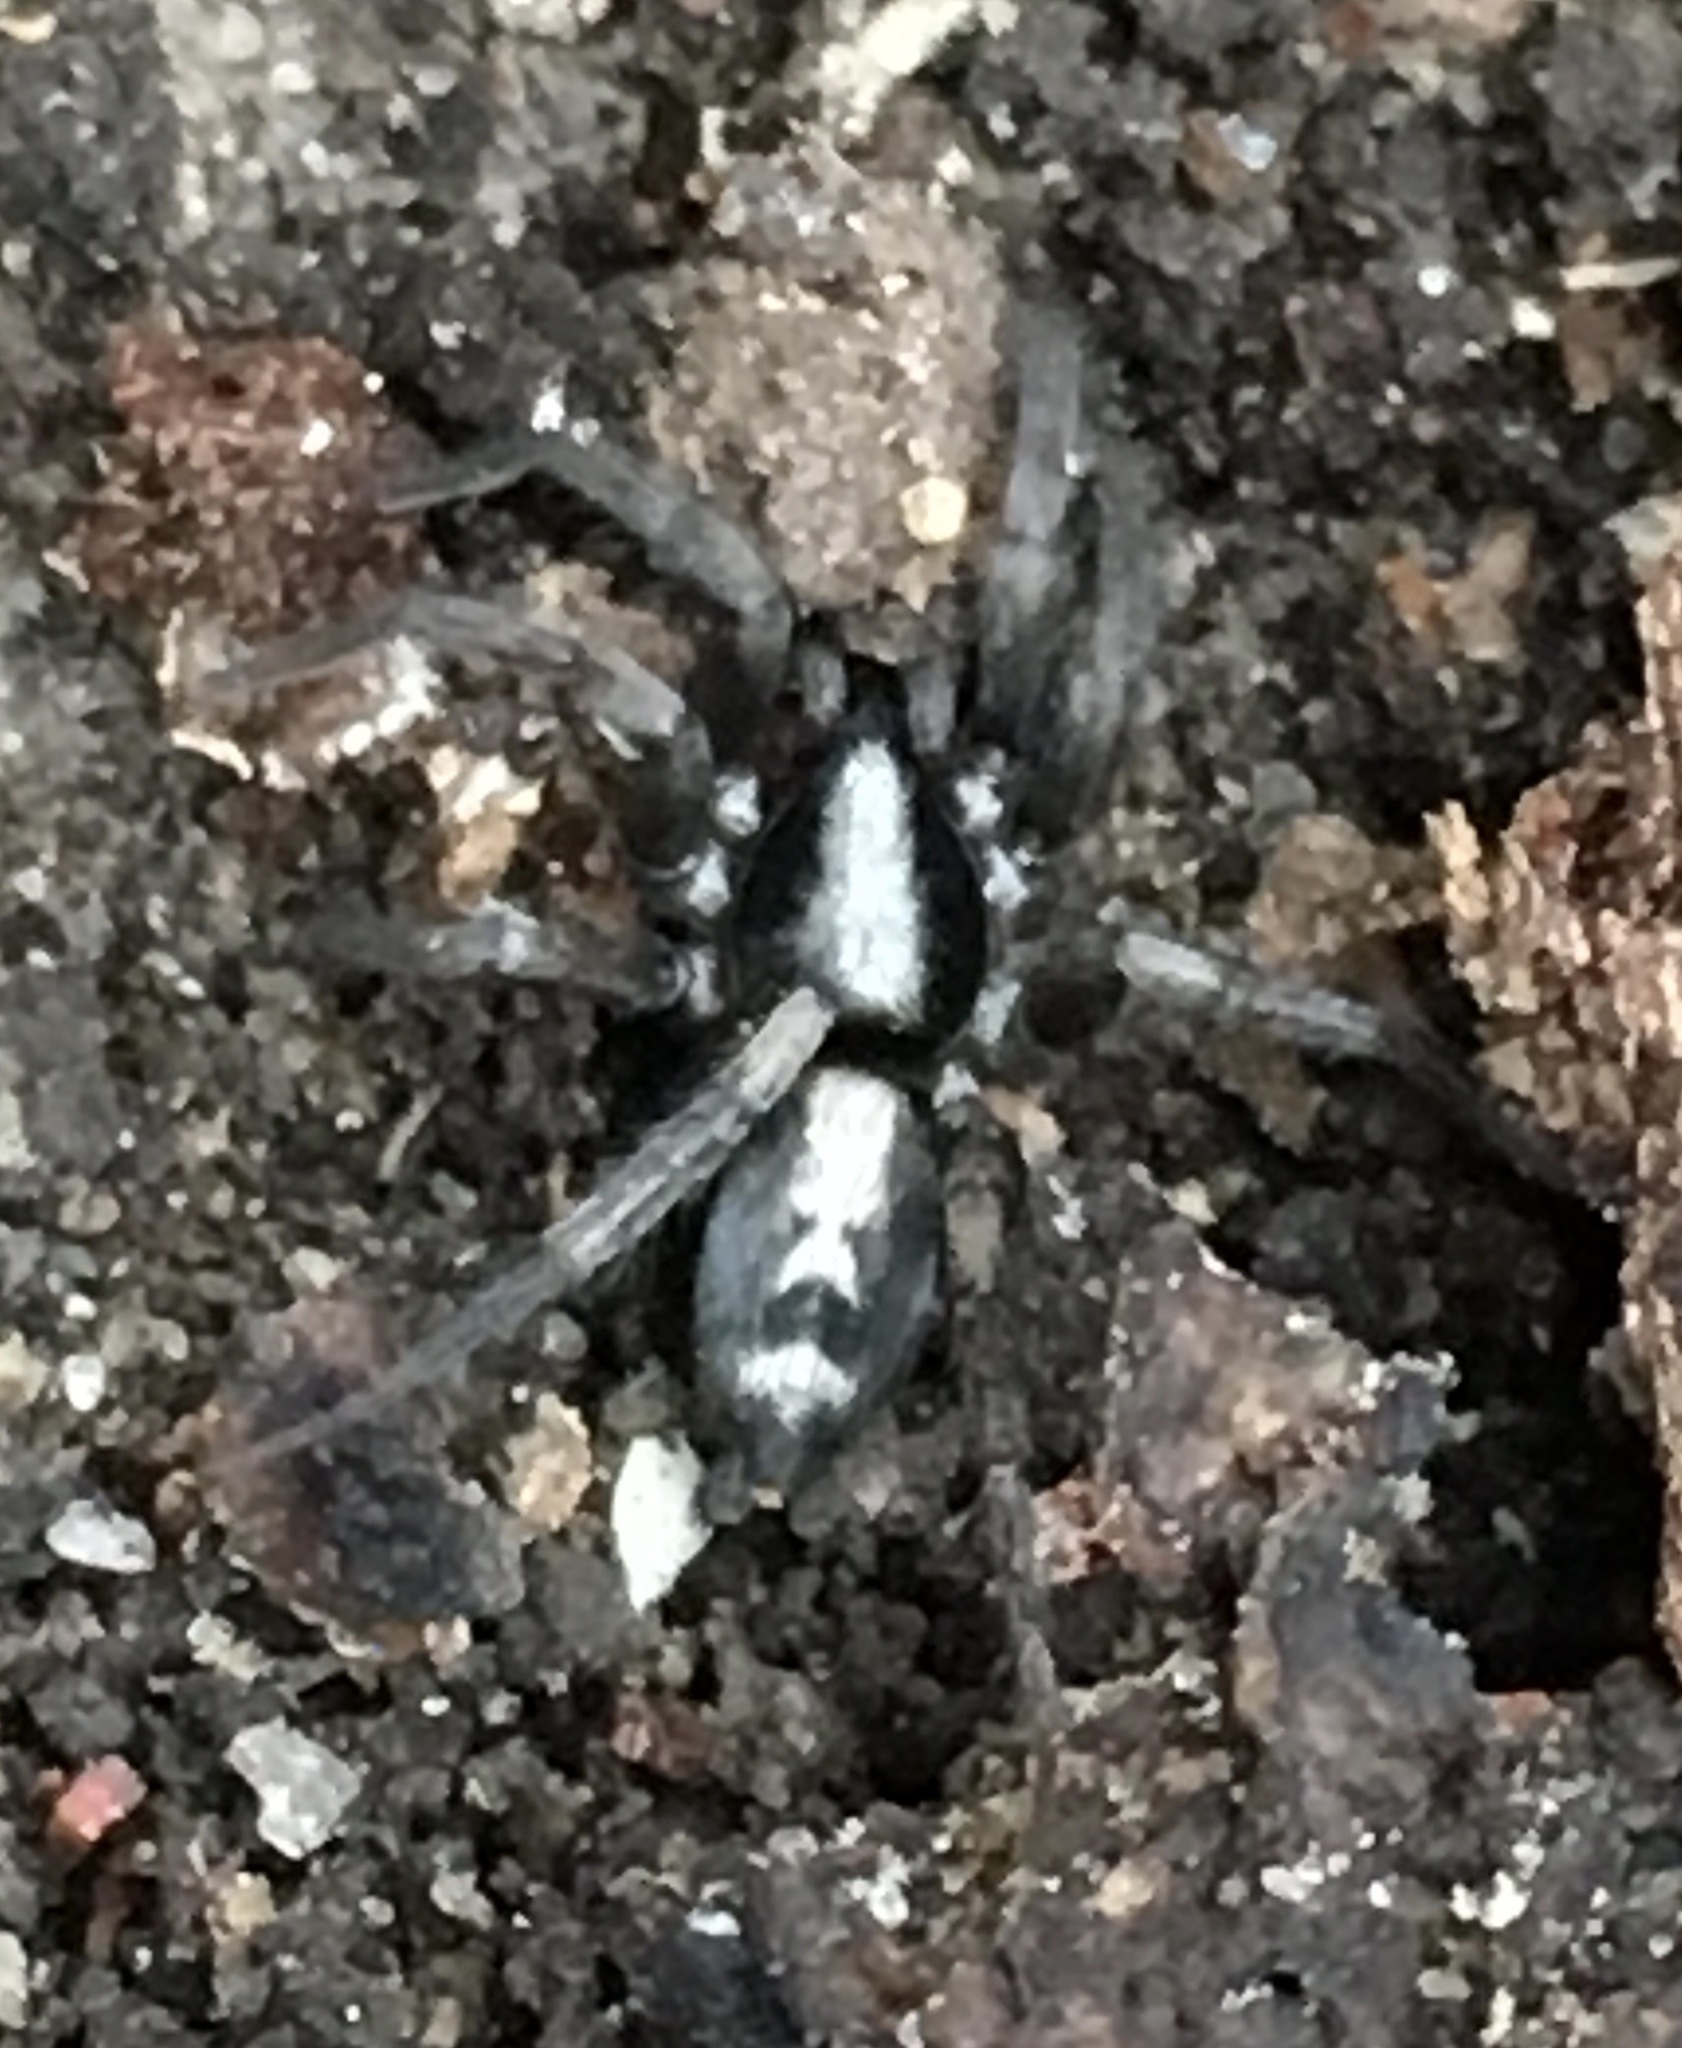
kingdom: Animalia
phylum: Arthropoda
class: Arachnida
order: Araneae
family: Gnaphosidae
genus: Herpyllus
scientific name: Herpyllus ecclesiasticus
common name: Eastern parson spider
